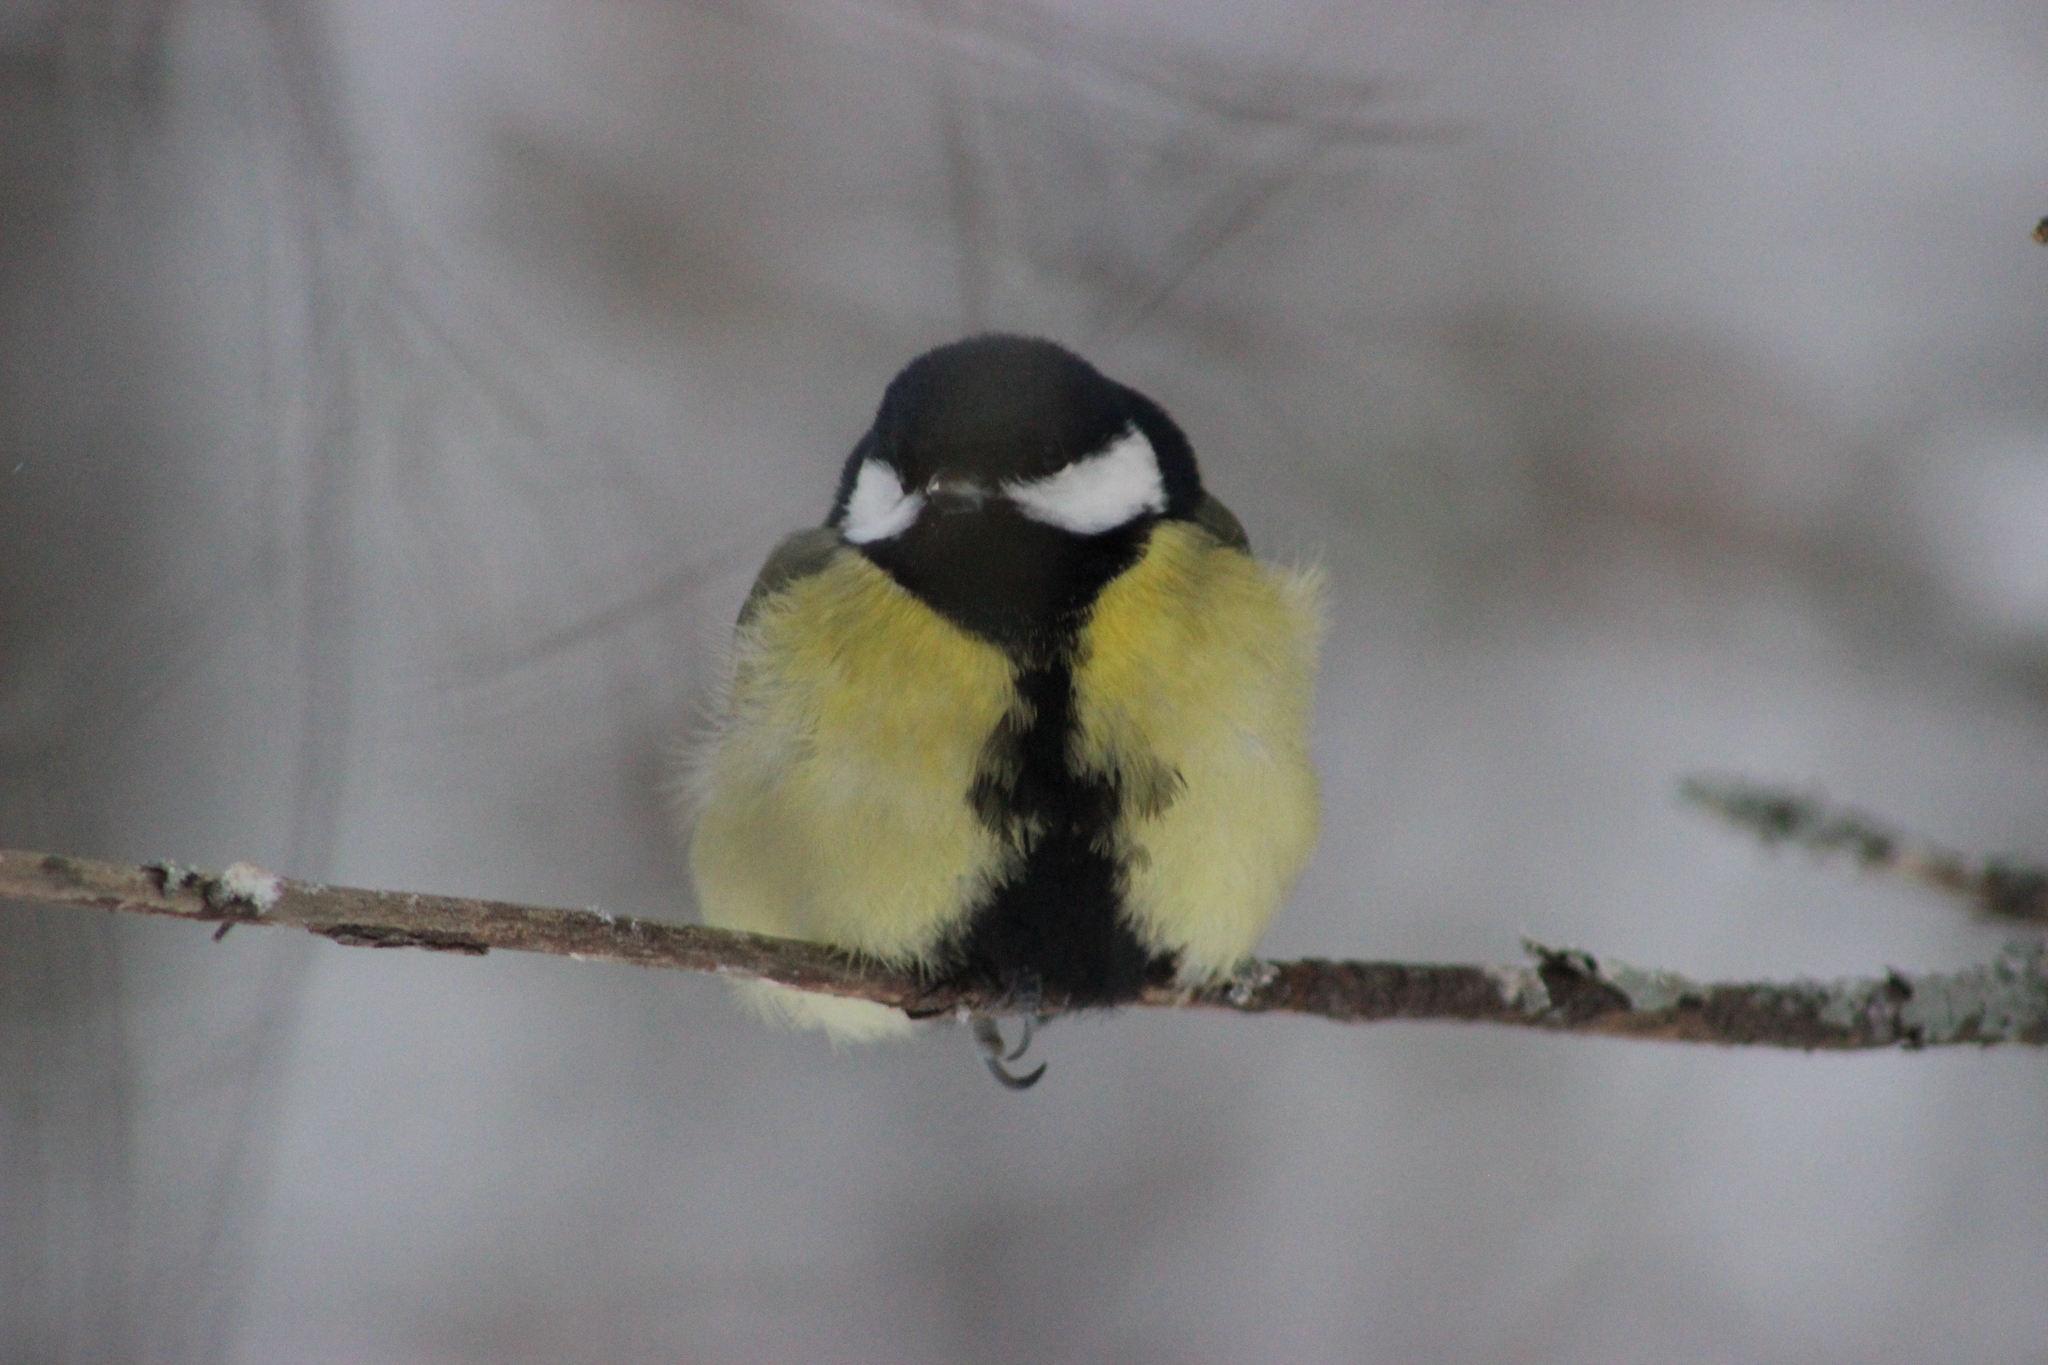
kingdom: Animalia
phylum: Chordata
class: Aves
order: Passeriformes
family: Paridae
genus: Parus
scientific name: Parus major
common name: Great tit
